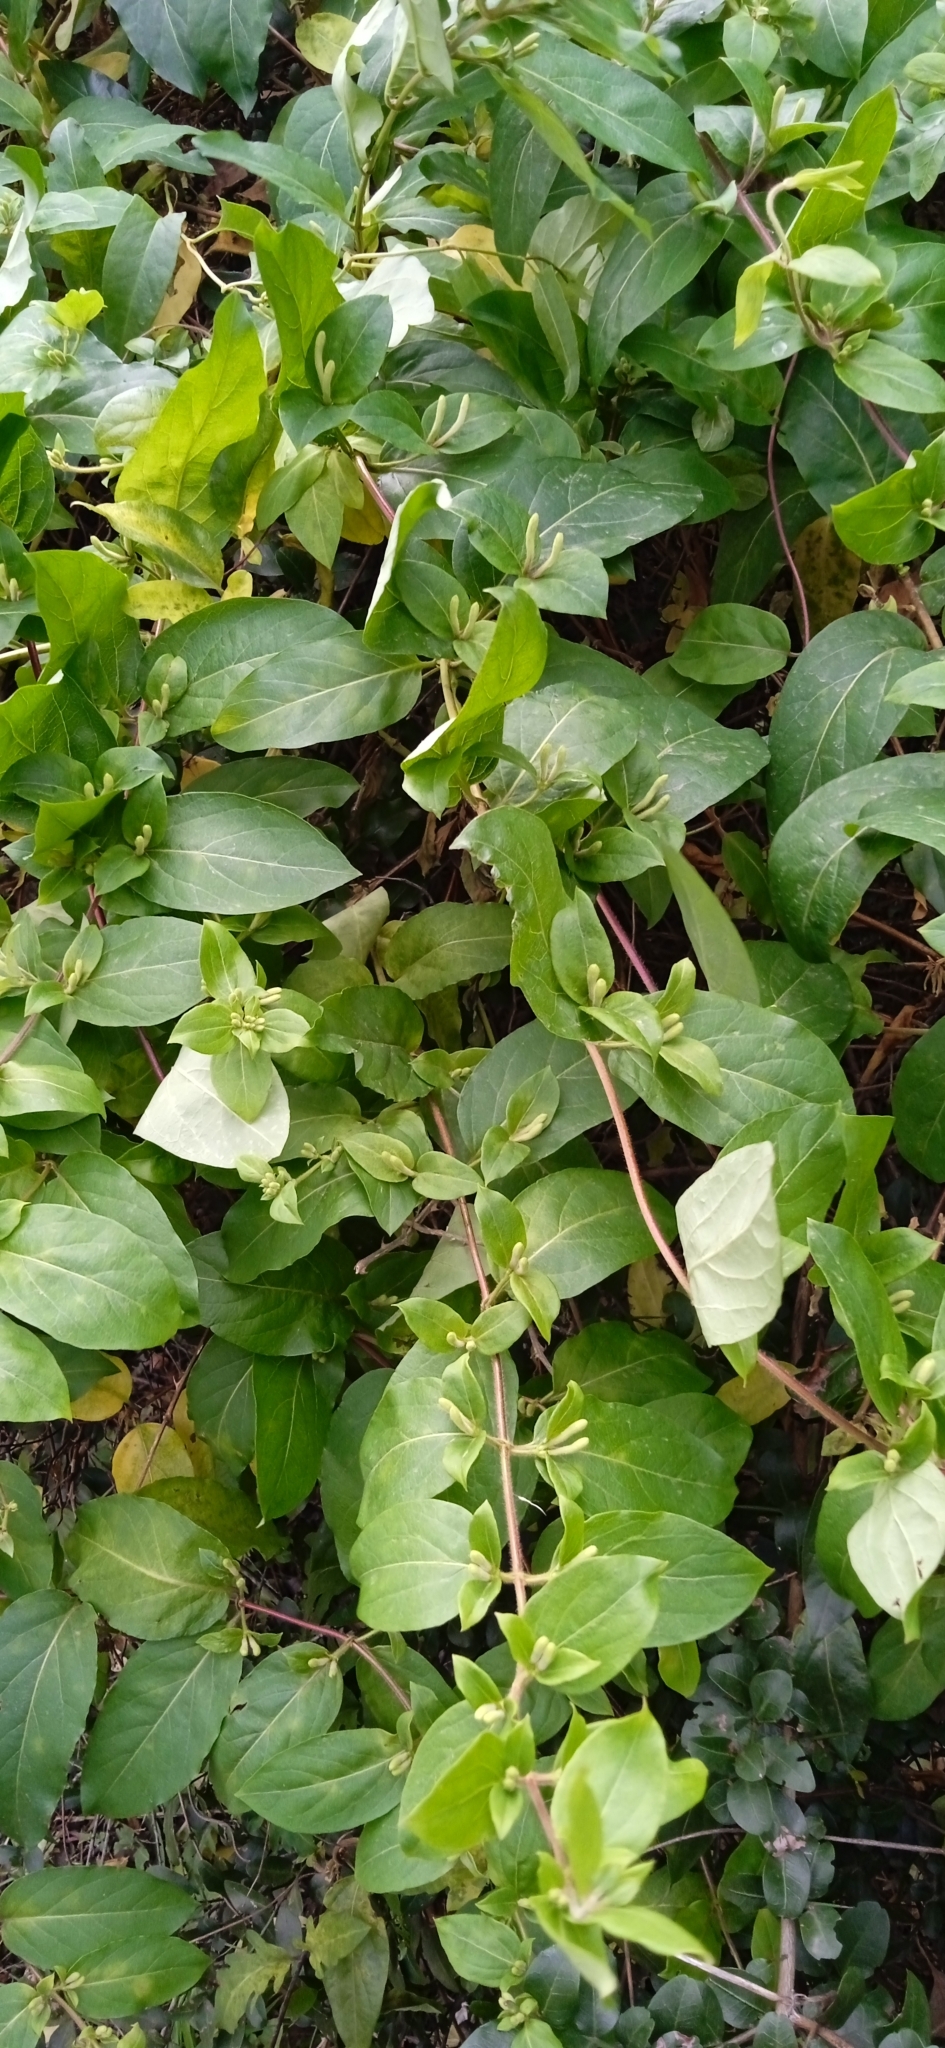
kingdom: Plantae
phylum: Tracheophyta
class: Magnoliopsida
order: Dipsacales
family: Caprifoliaceae
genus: Lonicera
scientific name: Lonicera japonica
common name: Japanese honeysuckle
